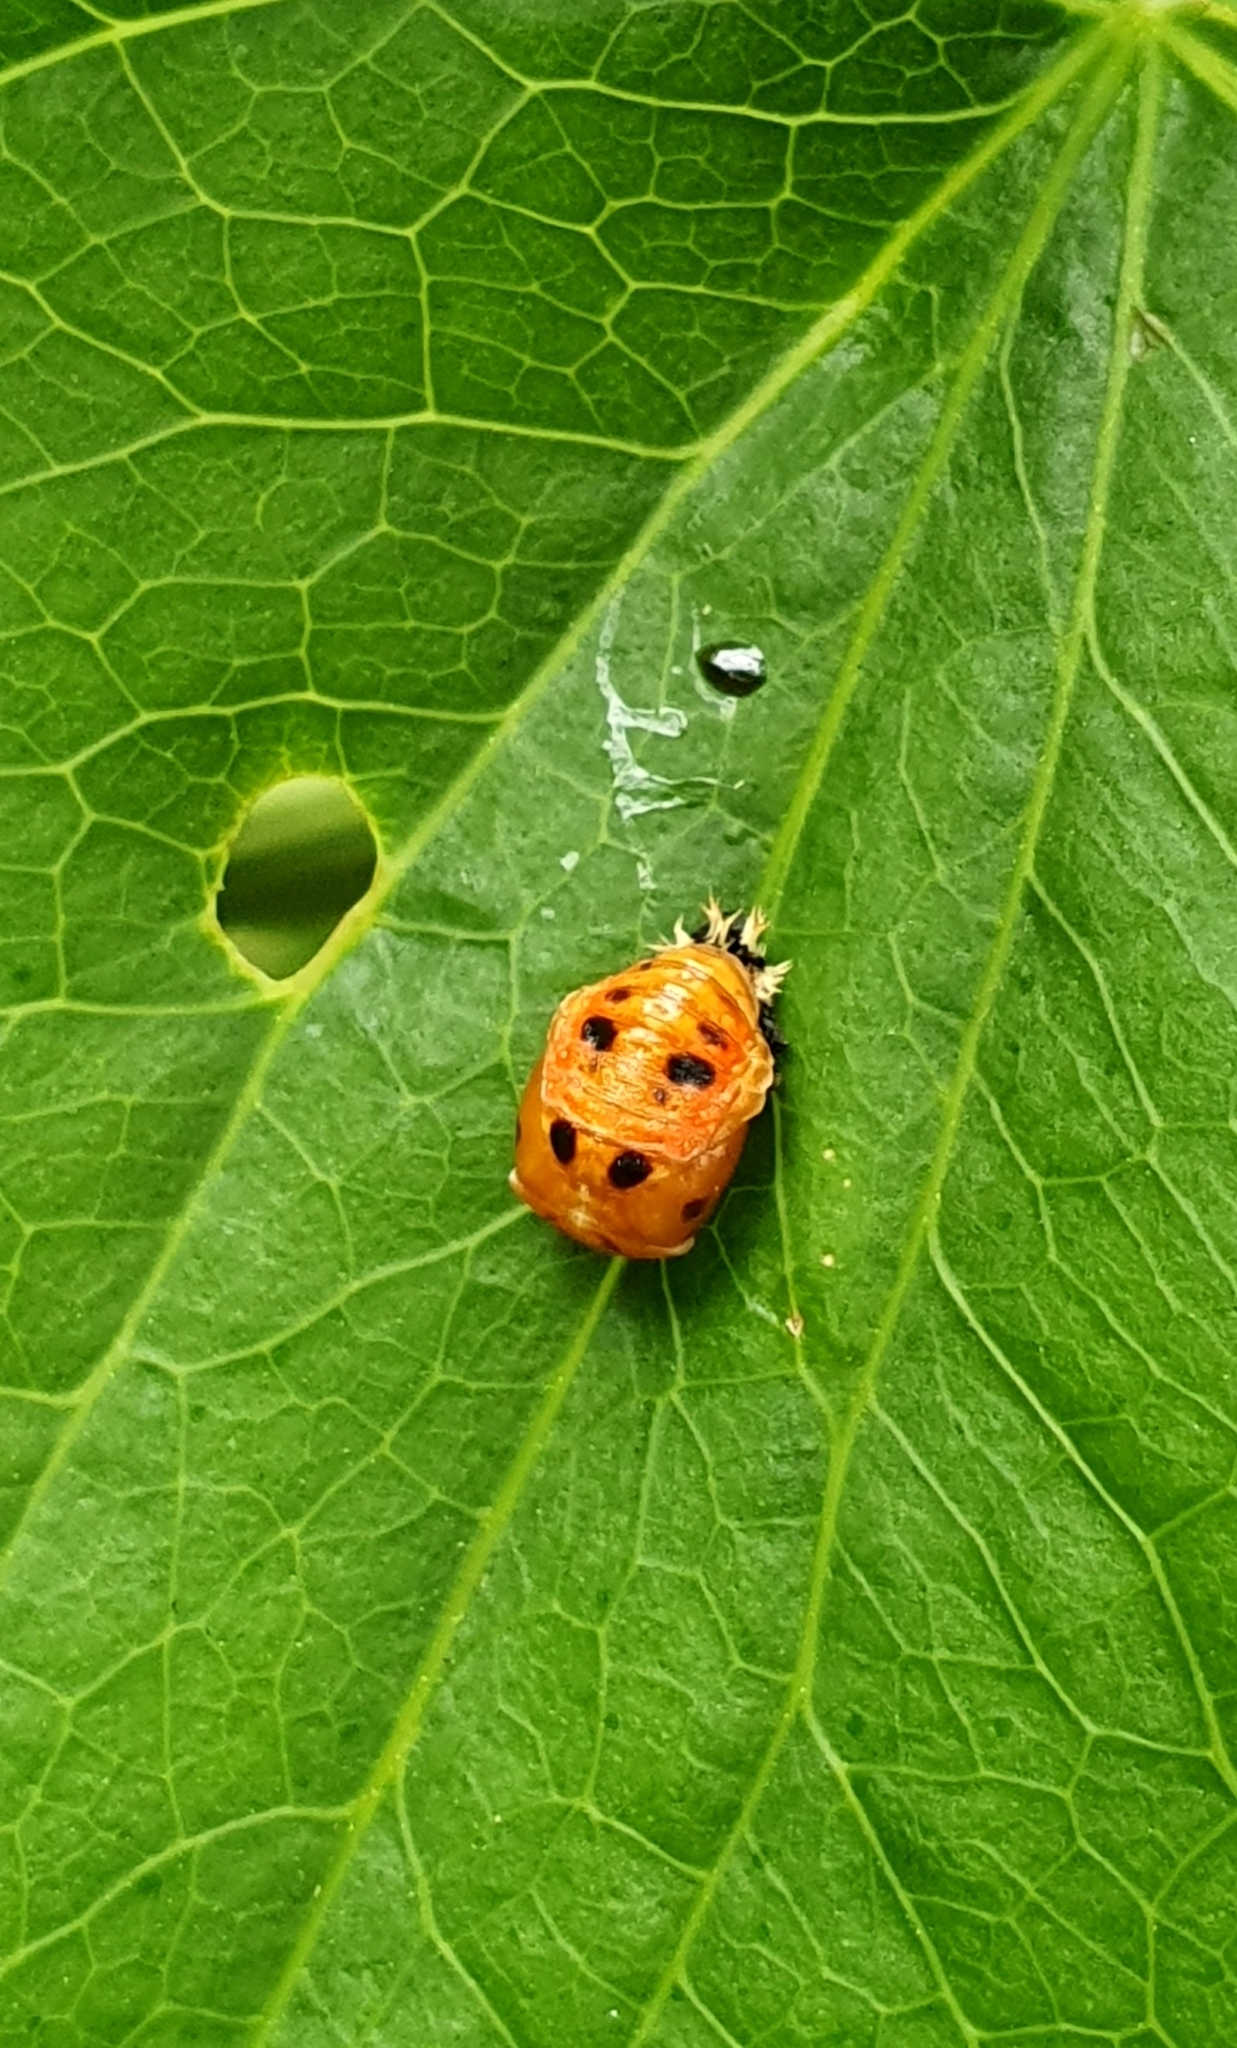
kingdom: Animalia
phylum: Arthropoda
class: Insecta
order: Coleoptera
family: Coccinellidae
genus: Harmonia
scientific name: Harmonia axyridis
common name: Harlequin ladybird
